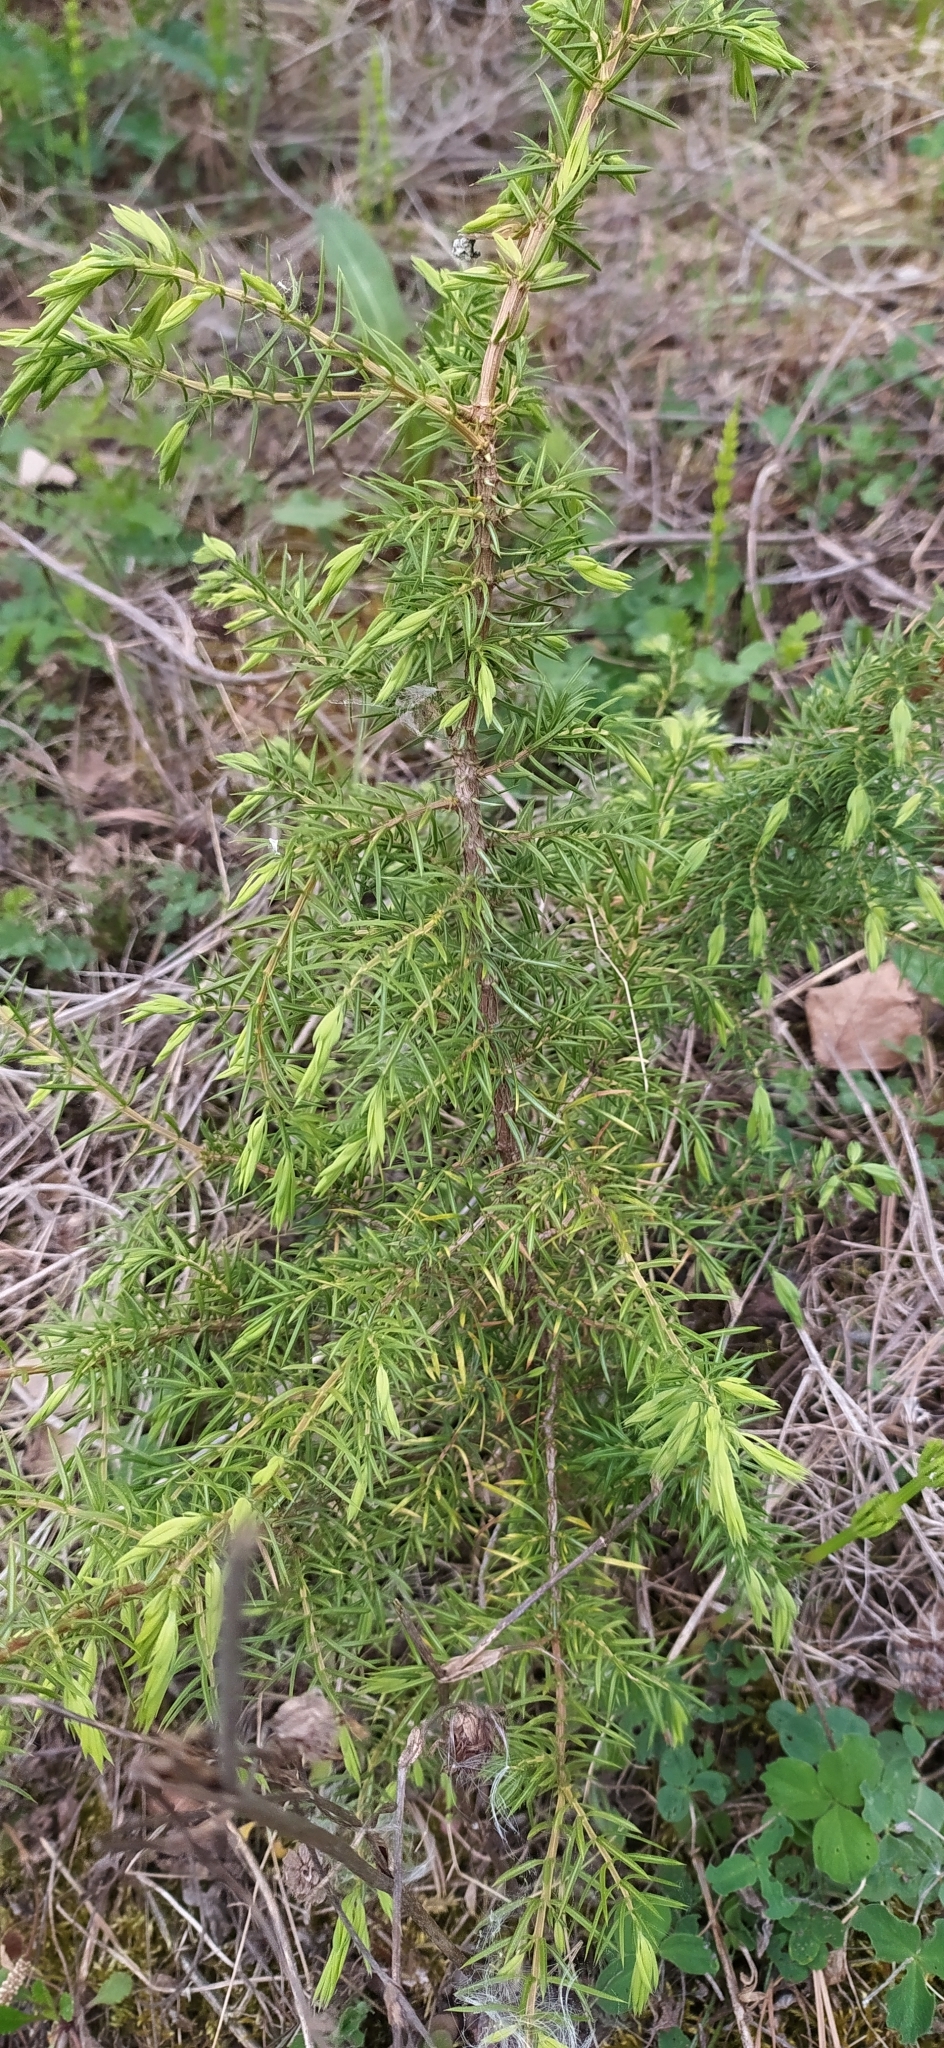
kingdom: Plantae
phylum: Tracheophyta
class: Pinopsida
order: Pinales
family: Cupressaceae
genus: Juniperus
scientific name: Juniperus communis
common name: Common juniper
